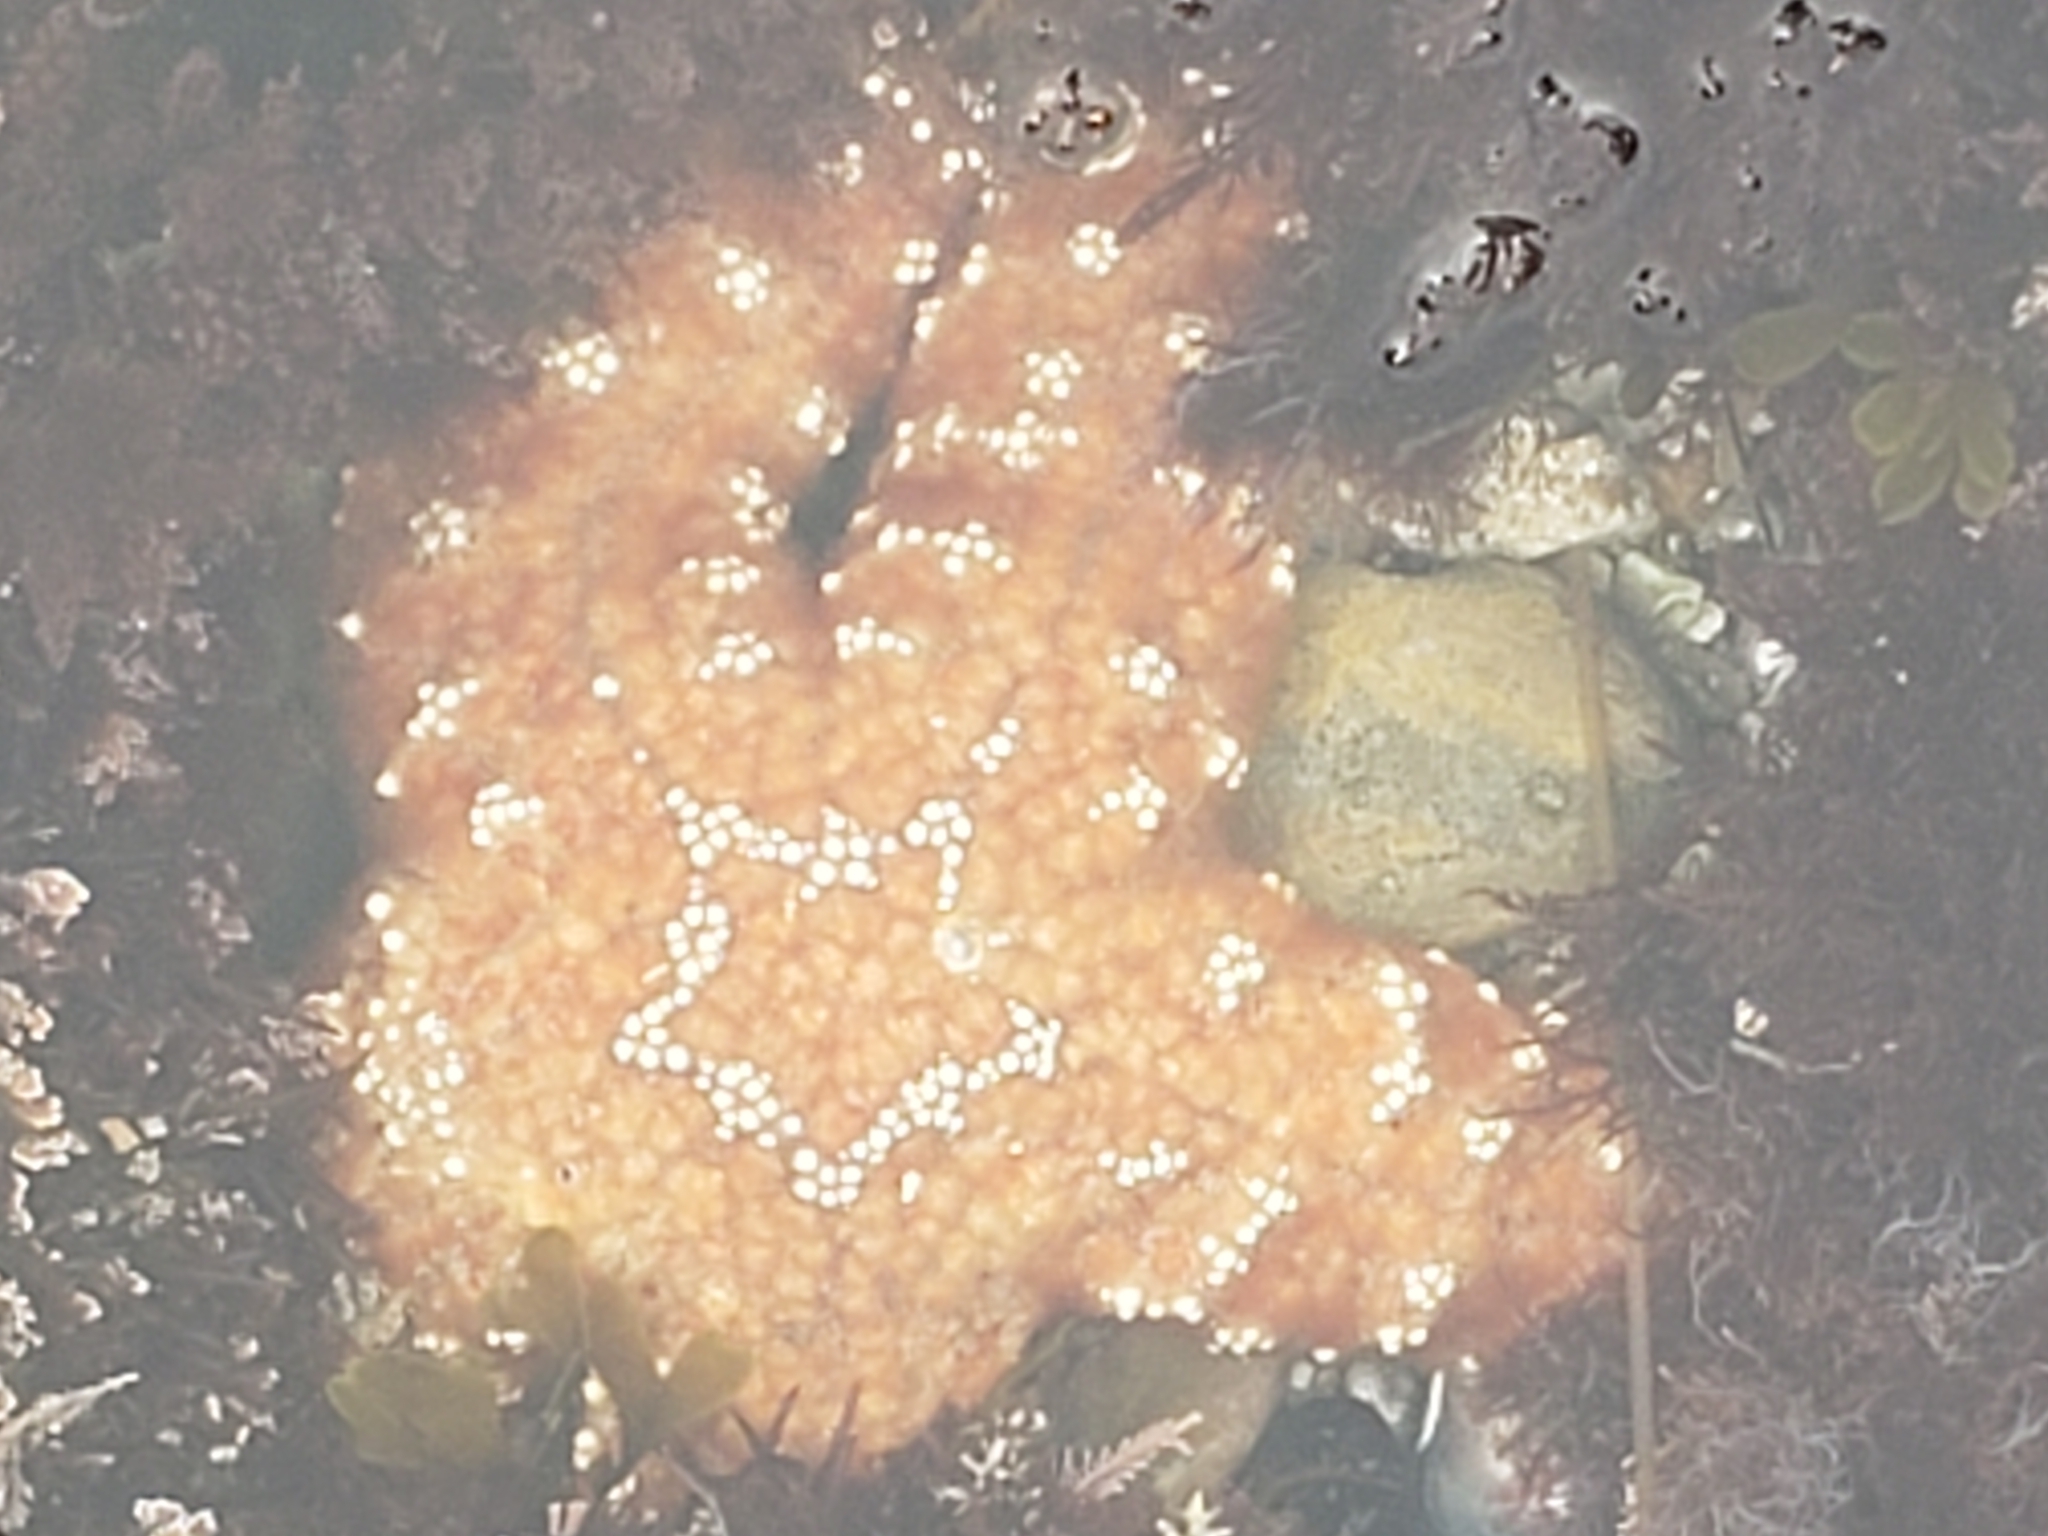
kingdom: Animalia
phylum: Echinodermata
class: Asteroidea
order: Forcipulatida
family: Asteriidae
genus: Pisaster
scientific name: Pisaster ochraceus
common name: Ochre stars
